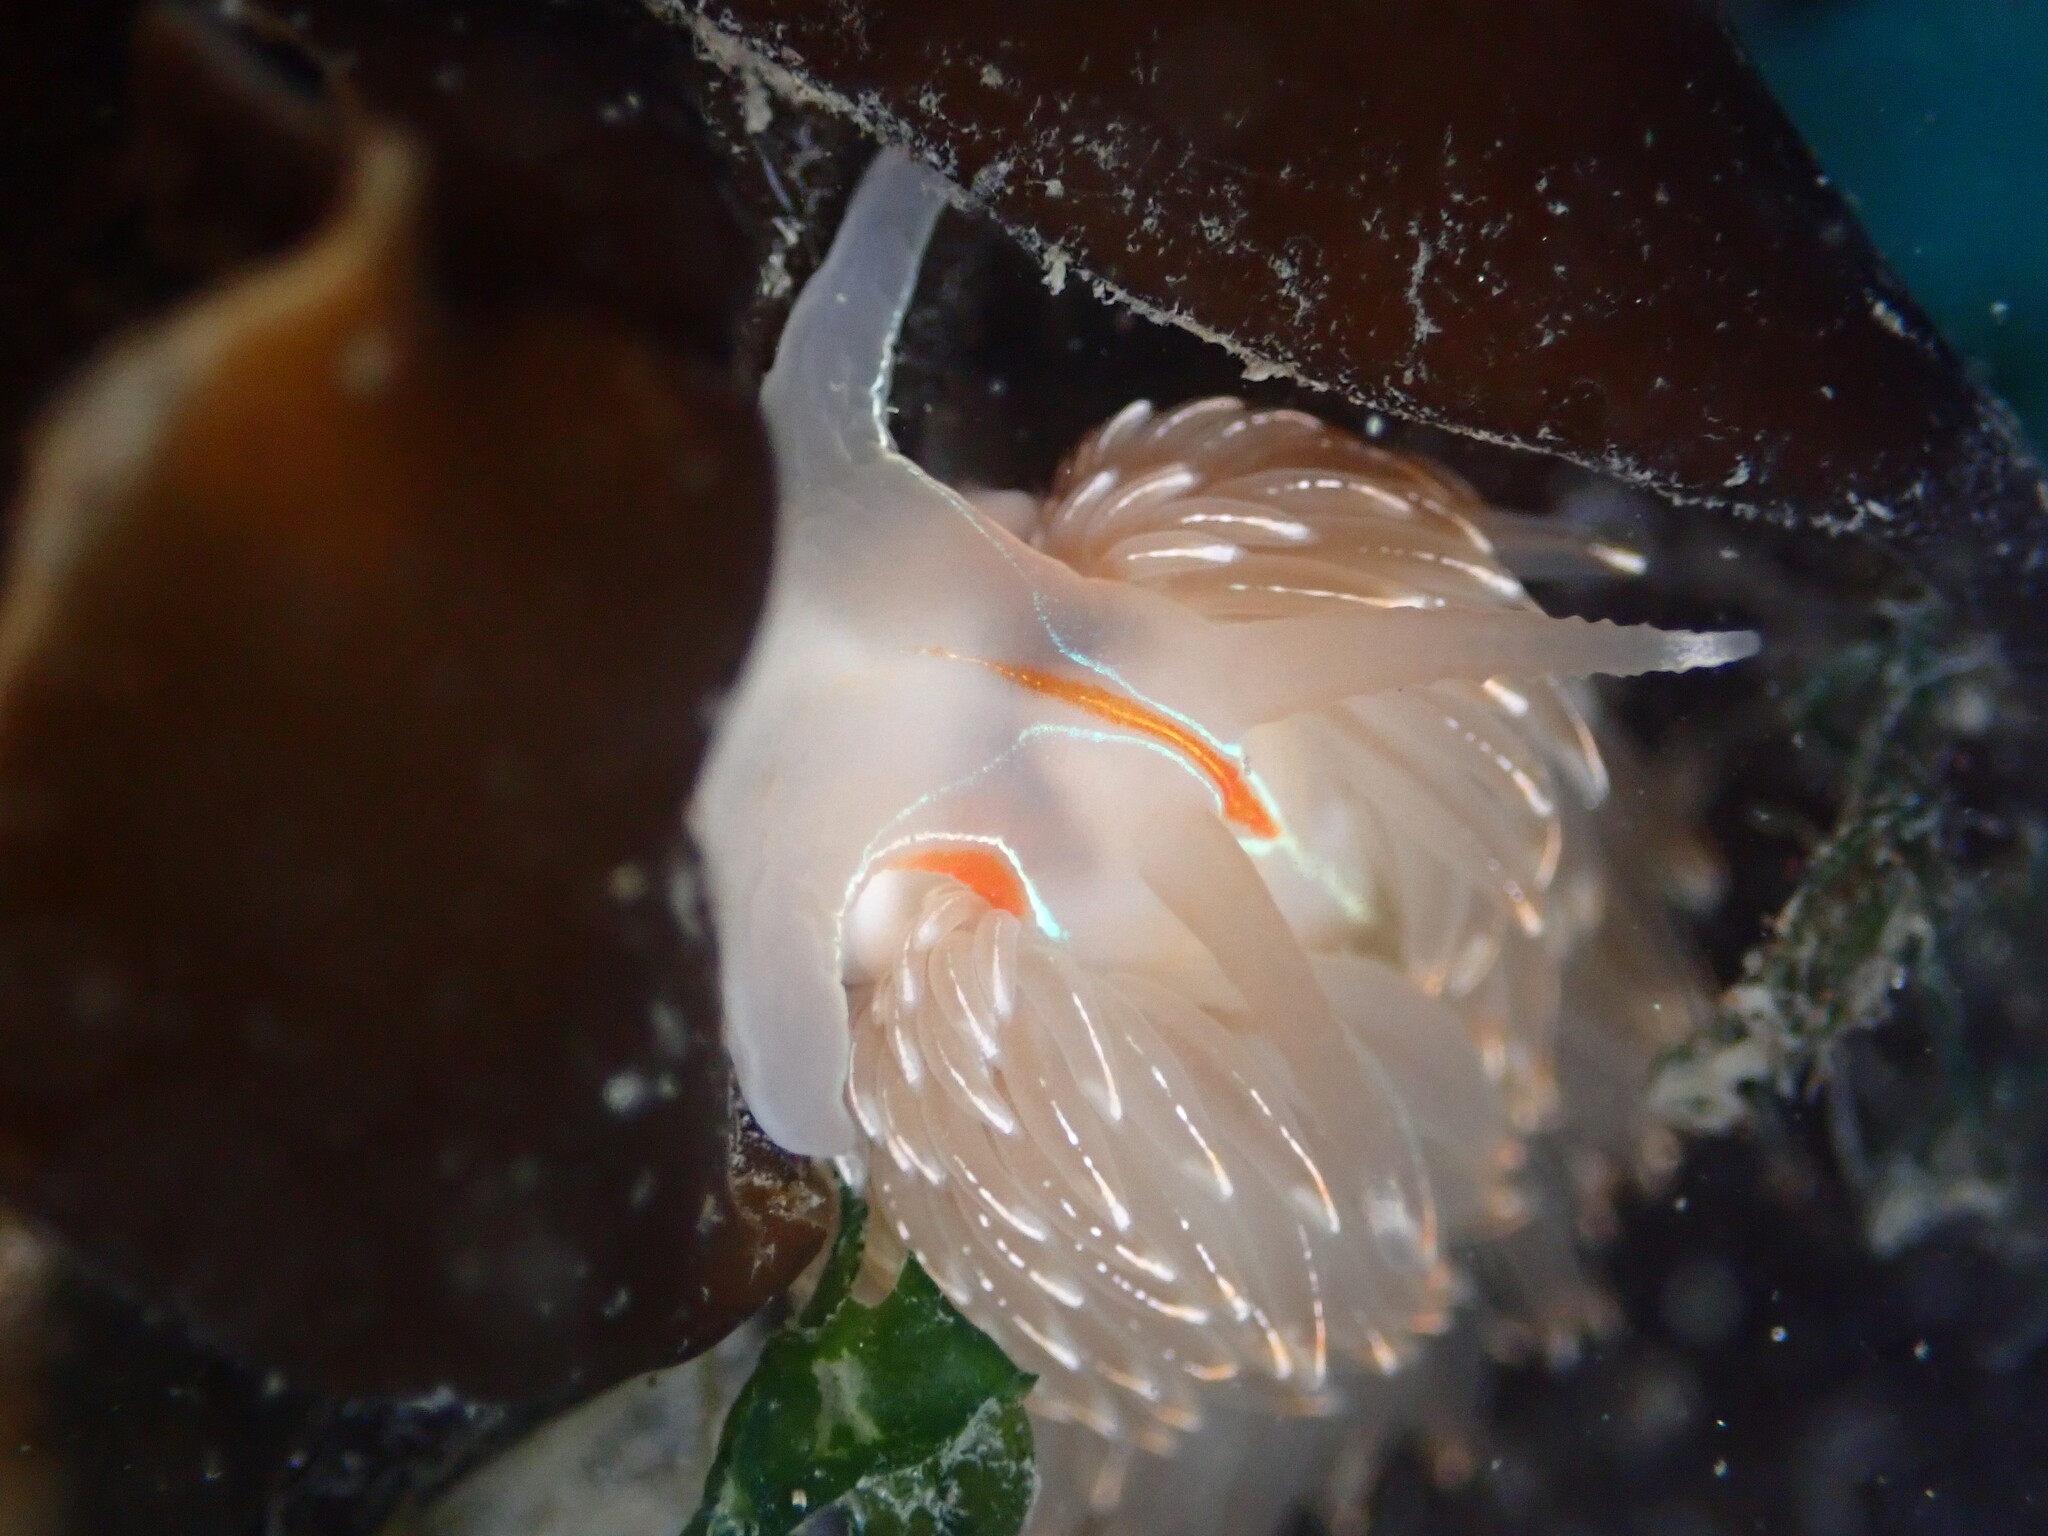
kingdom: Animalia
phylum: Mollusca
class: Gastropoda
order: Nudibranchia
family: Myrrhinidae
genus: Hermissenda
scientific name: Hermissenda crassicornis
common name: Hermissenda
